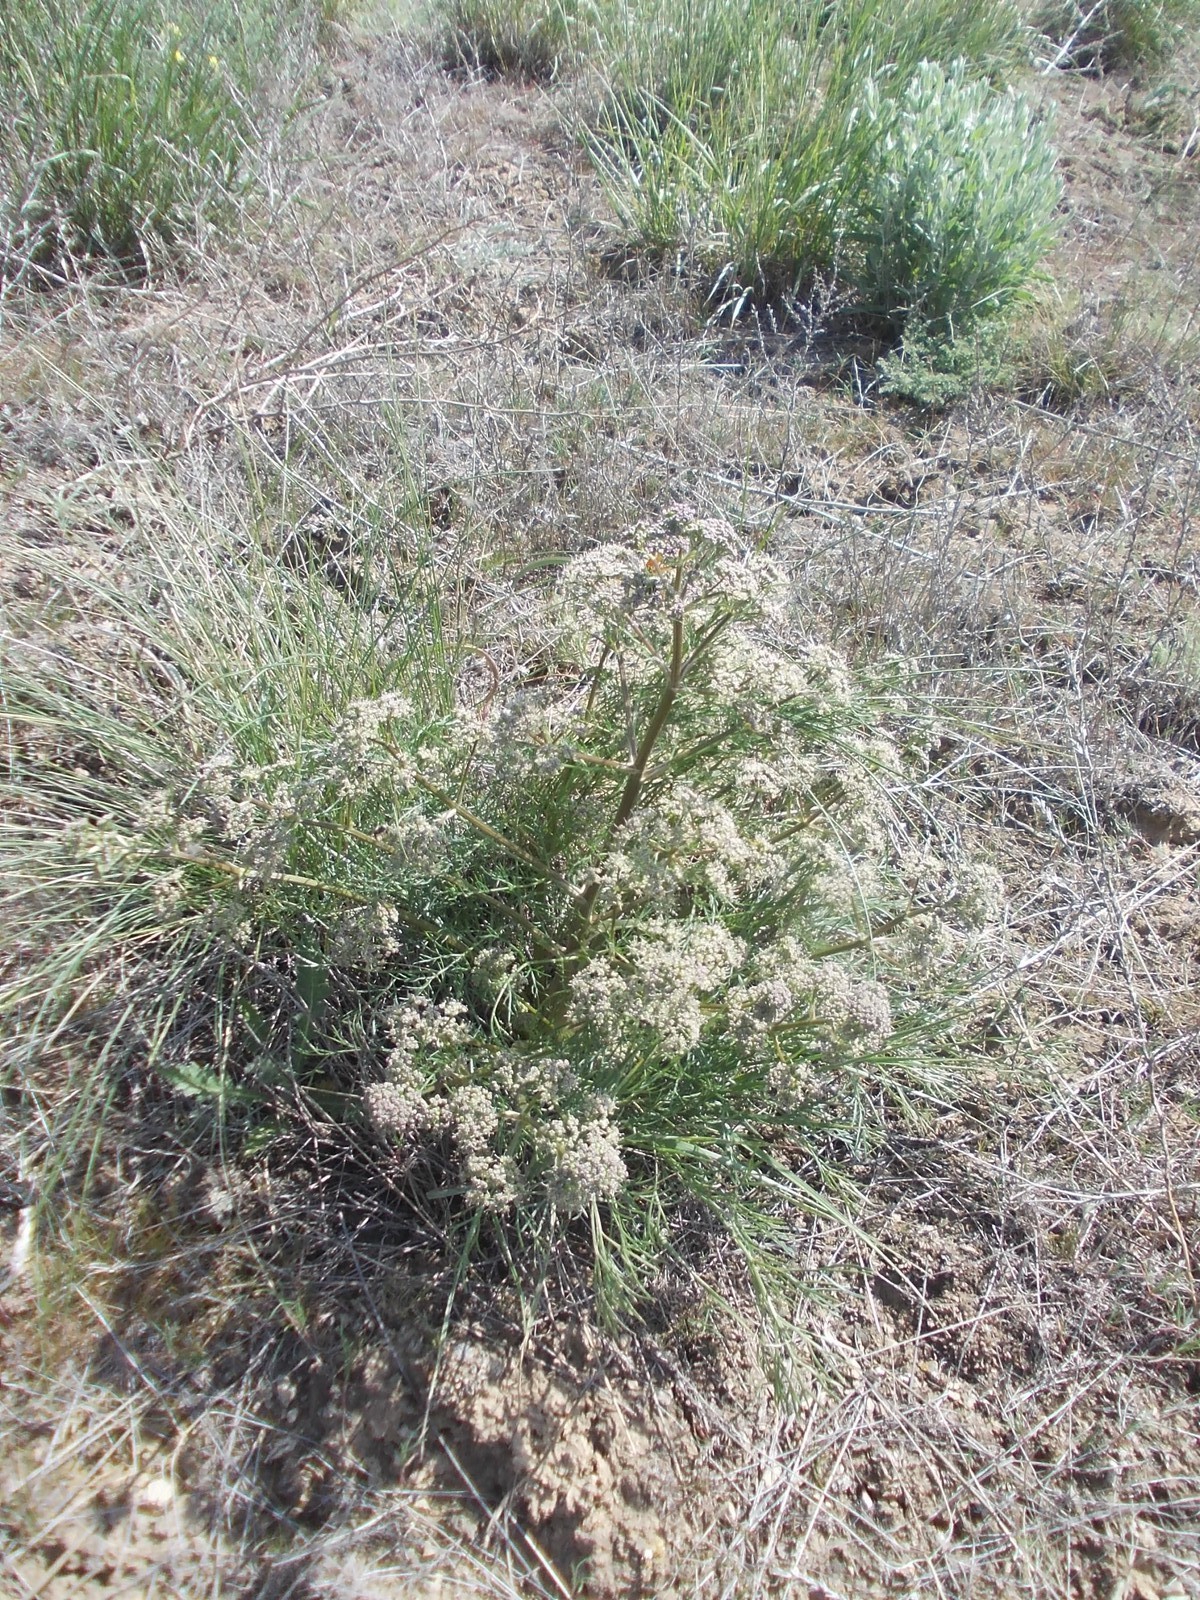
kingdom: Plantae
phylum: Tracheophyta
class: Magnoliopsida
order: Apiales
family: Apiaceae
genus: Trinia
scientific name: Trinia hispida
